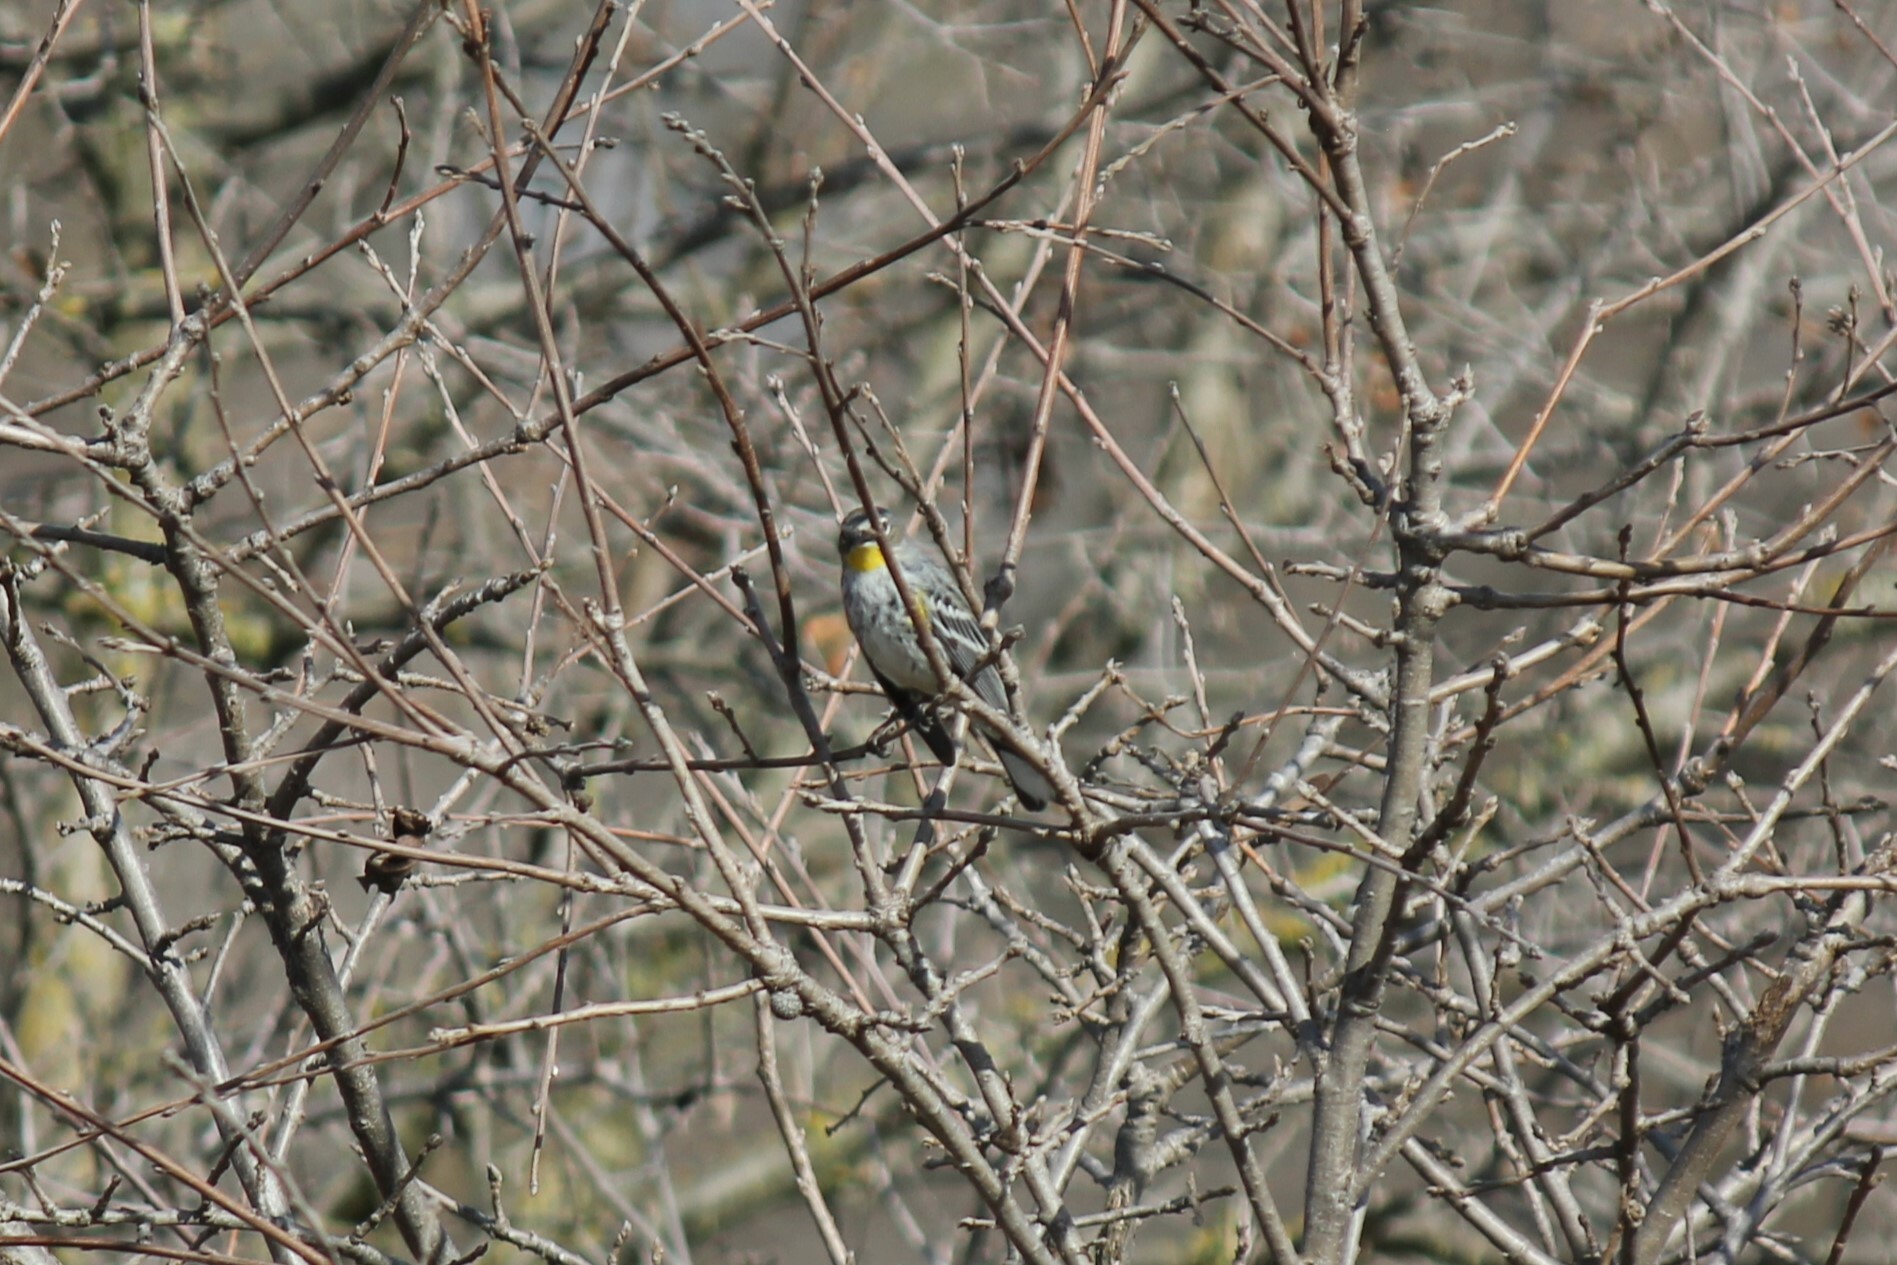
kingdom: Animalia
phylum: Chordata
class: Aves
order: Passeriformes
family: Parulidae
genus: Setophaga
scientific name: Setophaga coronata
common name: Myrtle warbler
